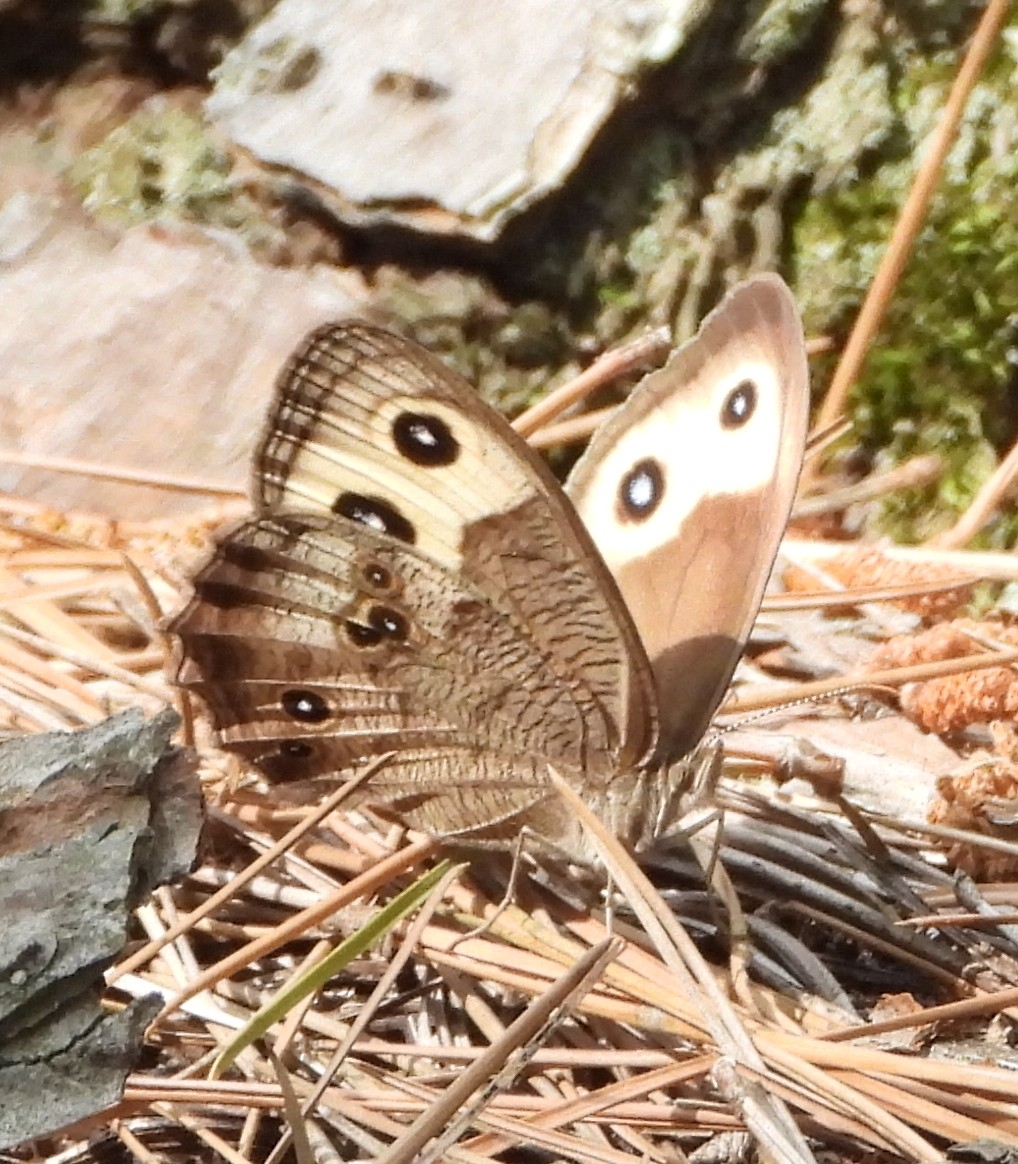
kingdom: Animalia
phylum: Arthropoda
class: Insecta
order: Lepidoptera
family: Nymphalidae
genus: Cercyonis
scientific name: Cercyonis pegala
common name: Common wood-nymph
